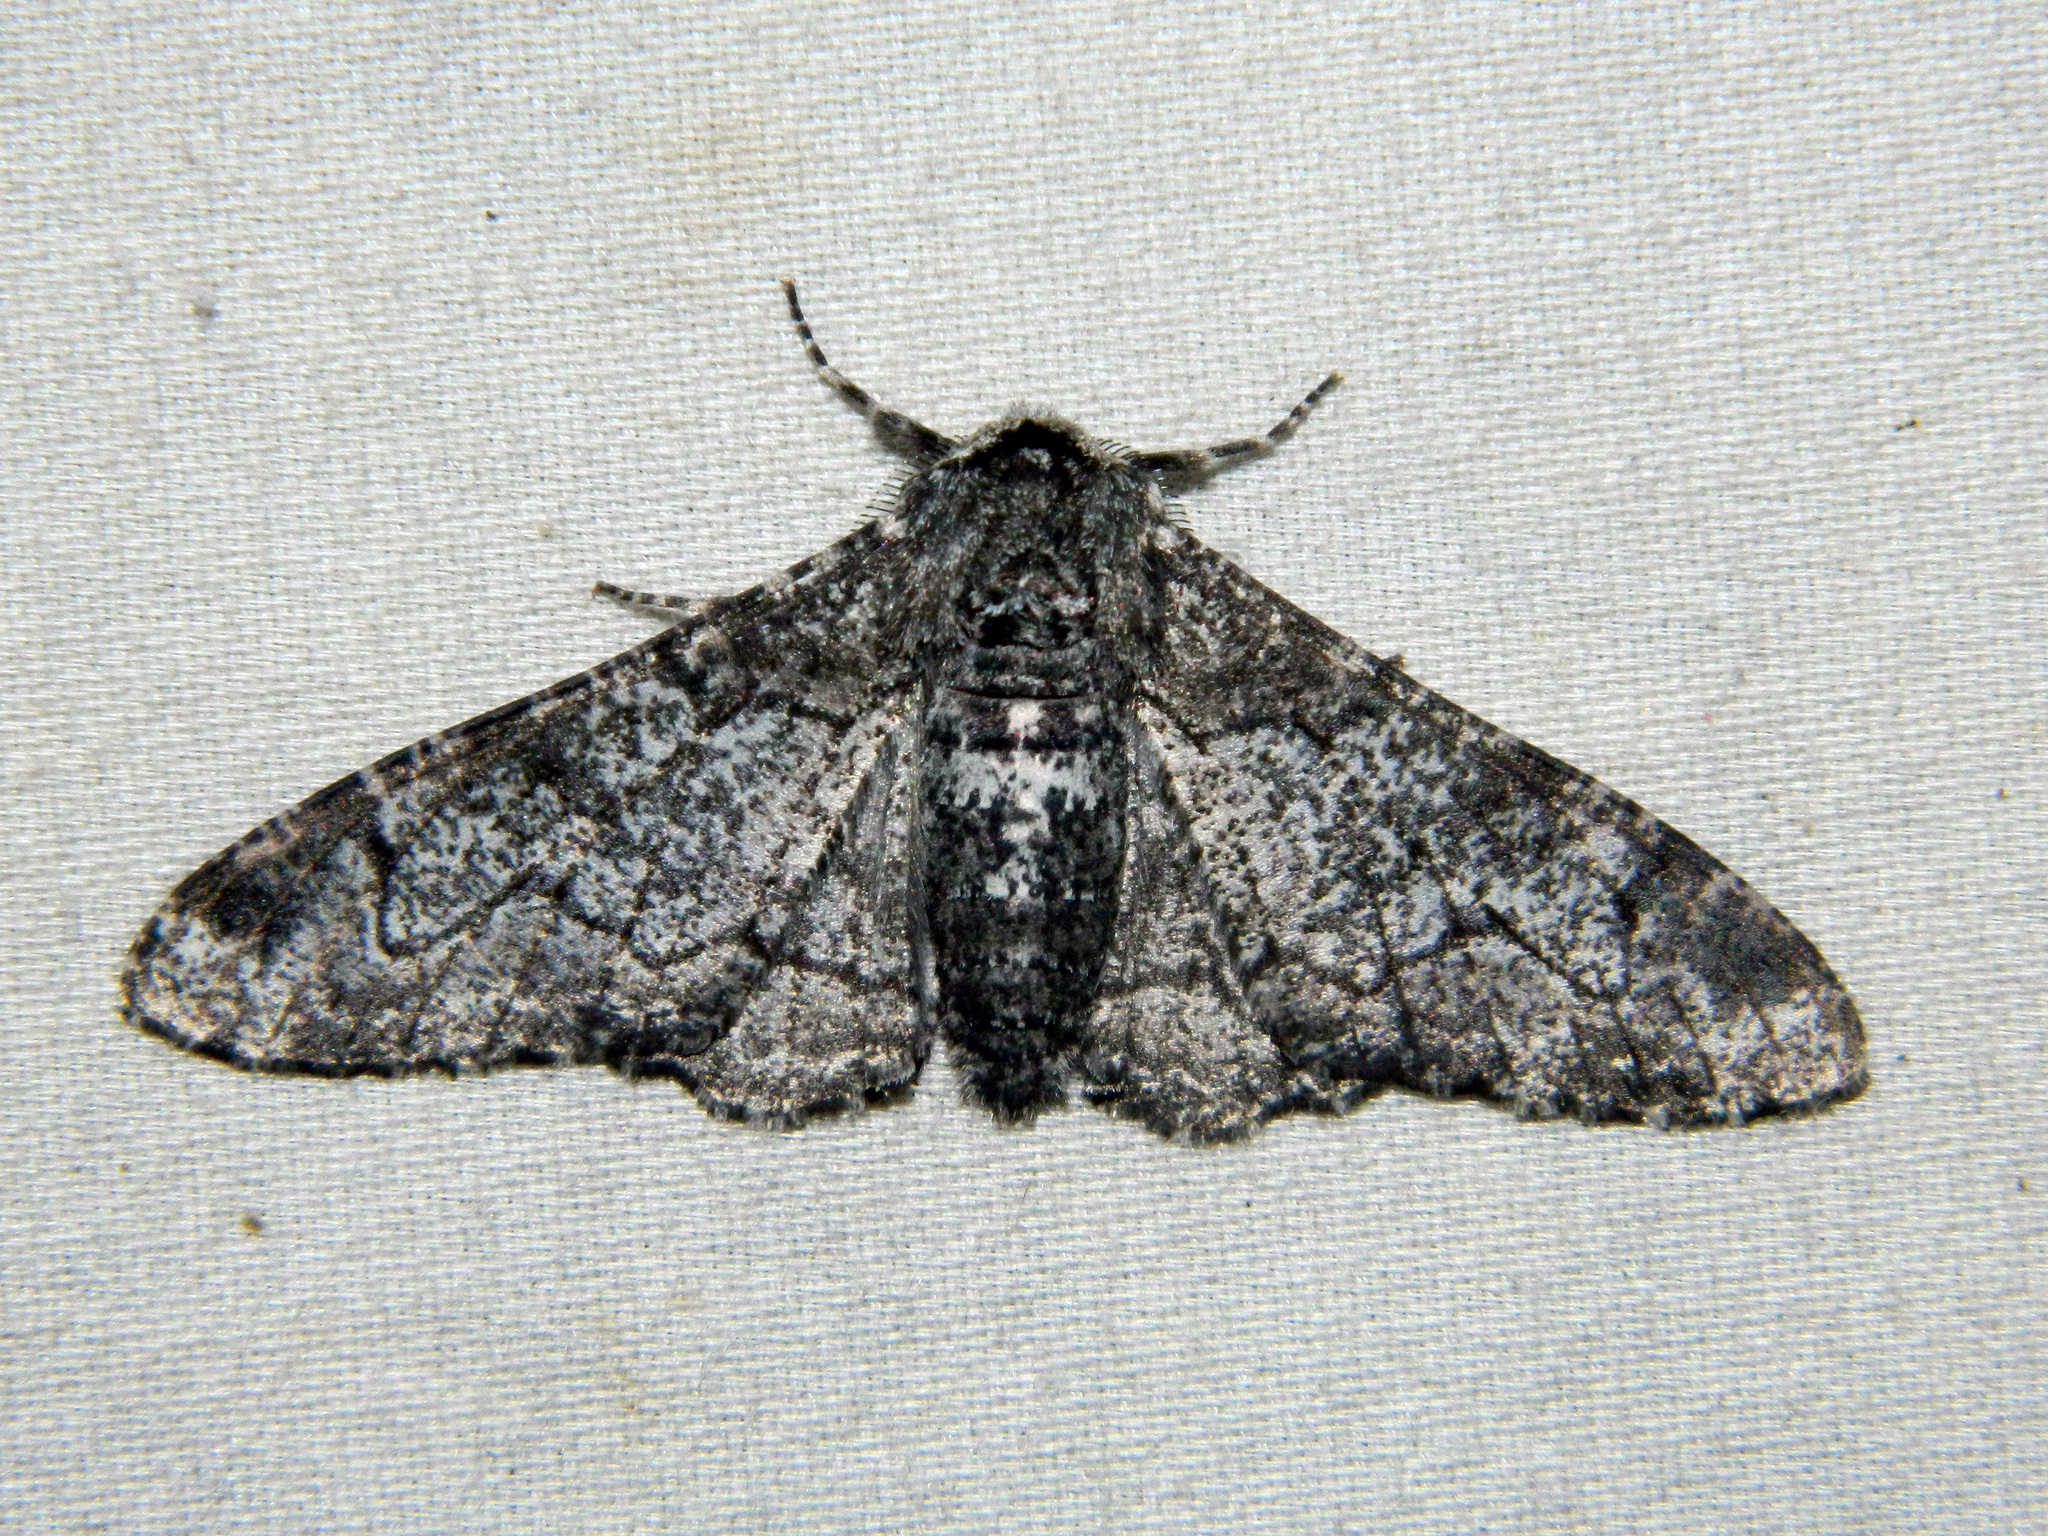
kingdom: Animalia
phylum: Arthropoda
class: Insecta
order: Lepidoptera
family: Geometridae
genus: Biston
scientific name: Biston betularia
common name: Peppered moth
